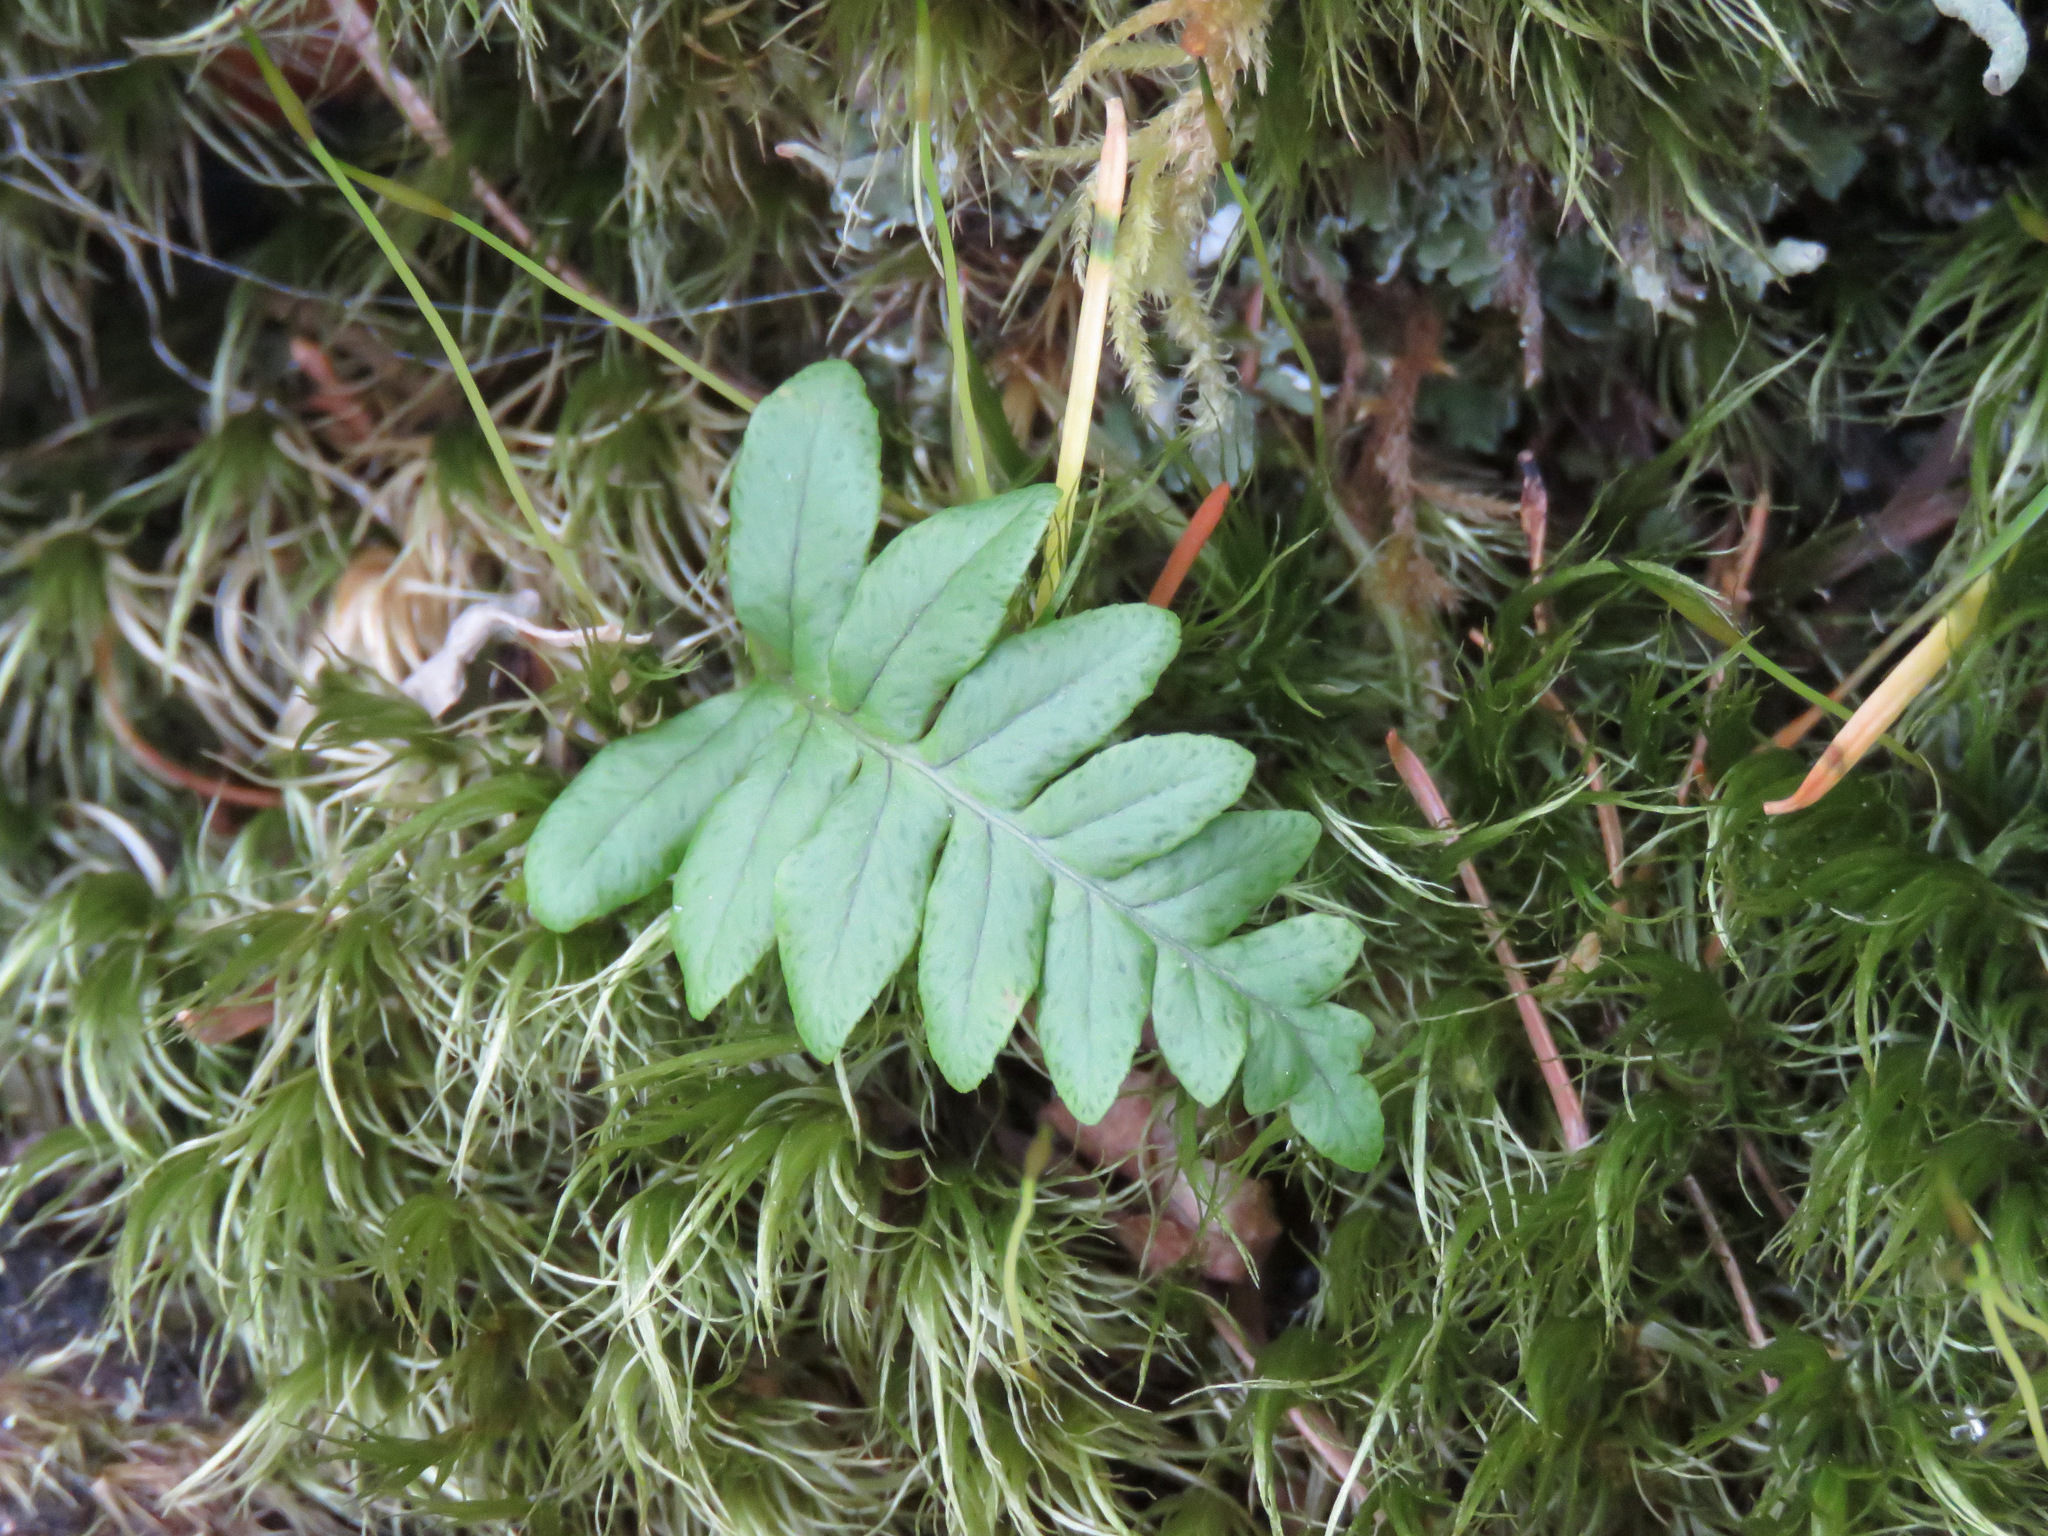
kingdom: Plantae
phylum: Tracheophyta
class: Polypodiopsida
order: Polypodiales
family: Polypodiaceae
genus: Polypodium
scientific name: Polypodium glycyrrhiza
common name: Licorice fern
